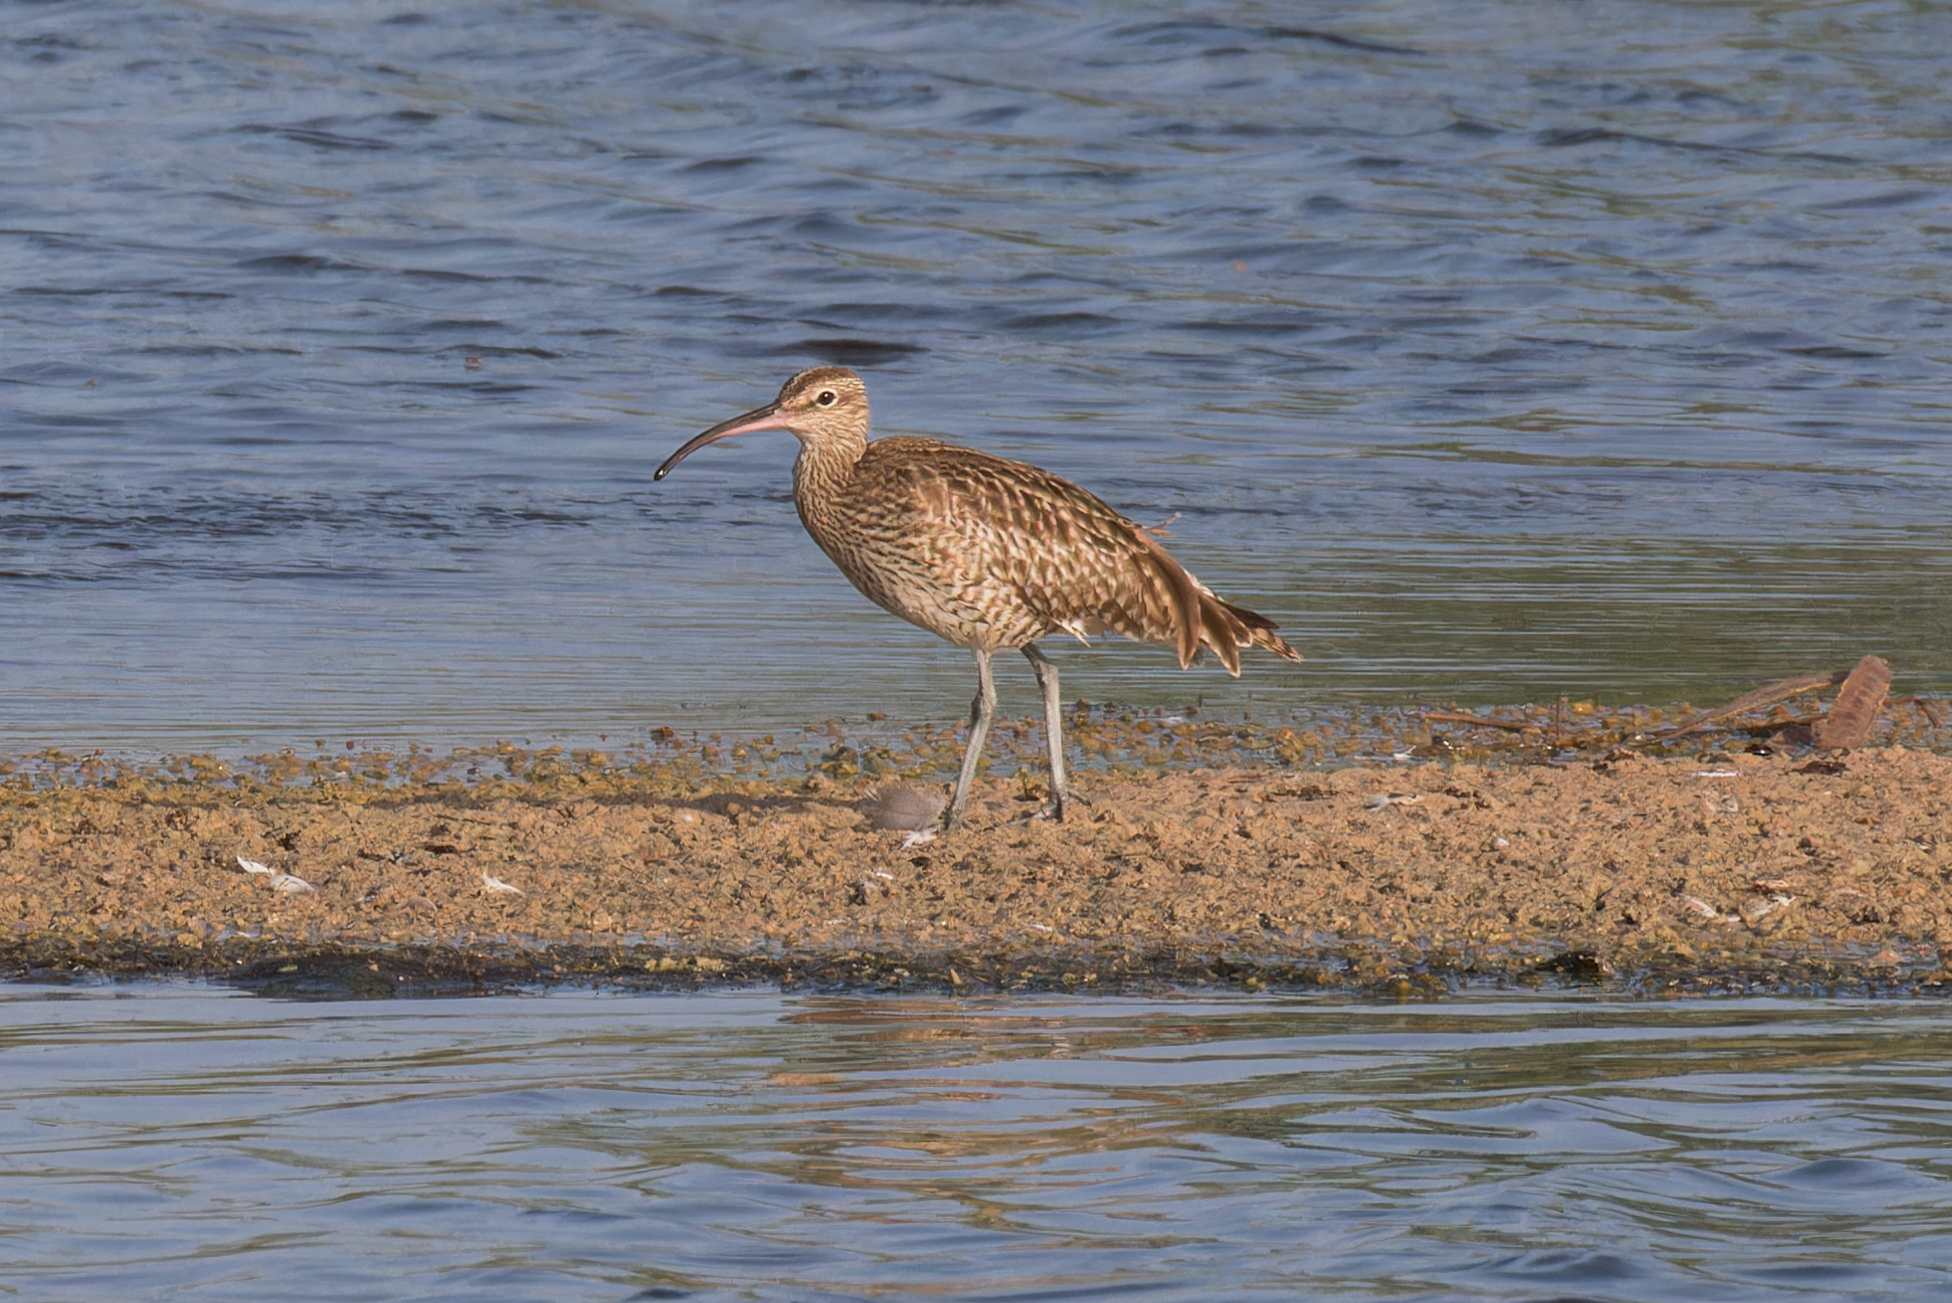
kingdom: Animalia
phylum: Chordata
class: Aves
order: Charadriiformes
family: Scolopacidae
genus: Numenius
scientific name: Numenius phaeopus
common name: Whimbrel
